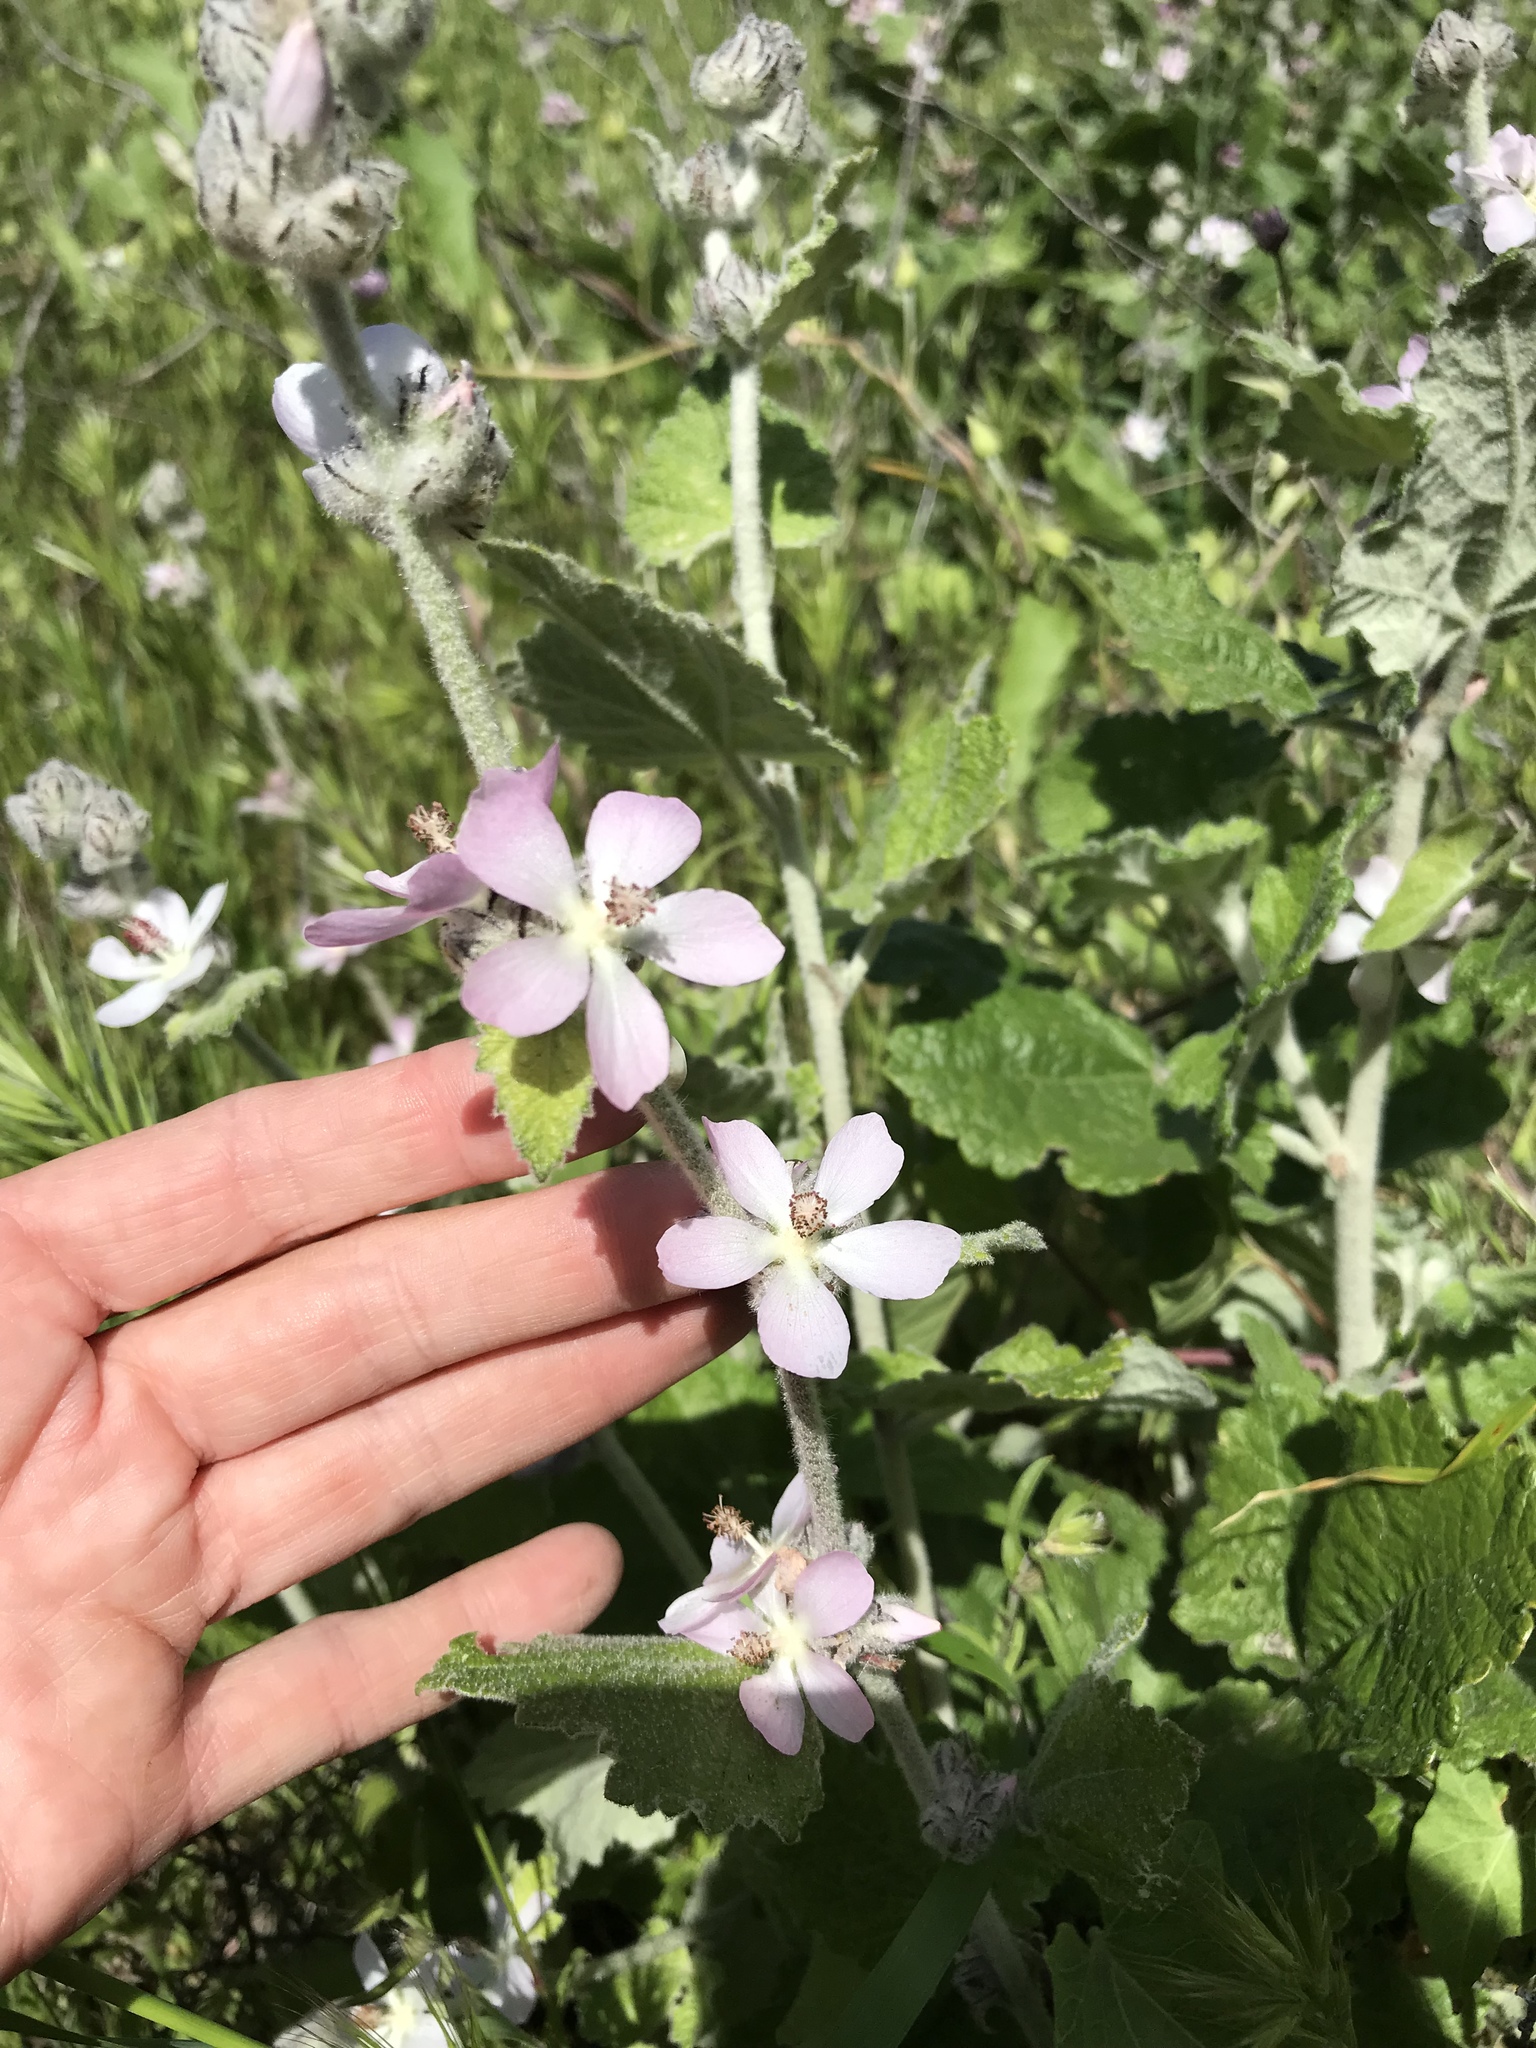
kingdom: Plantae
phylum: Tracheophyta
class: Magnoliopsida
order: Malvales
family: Malvaceae
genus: Malacothamnus
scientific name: Malacothamnus clementinus
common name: San clemente island bush-mallow
